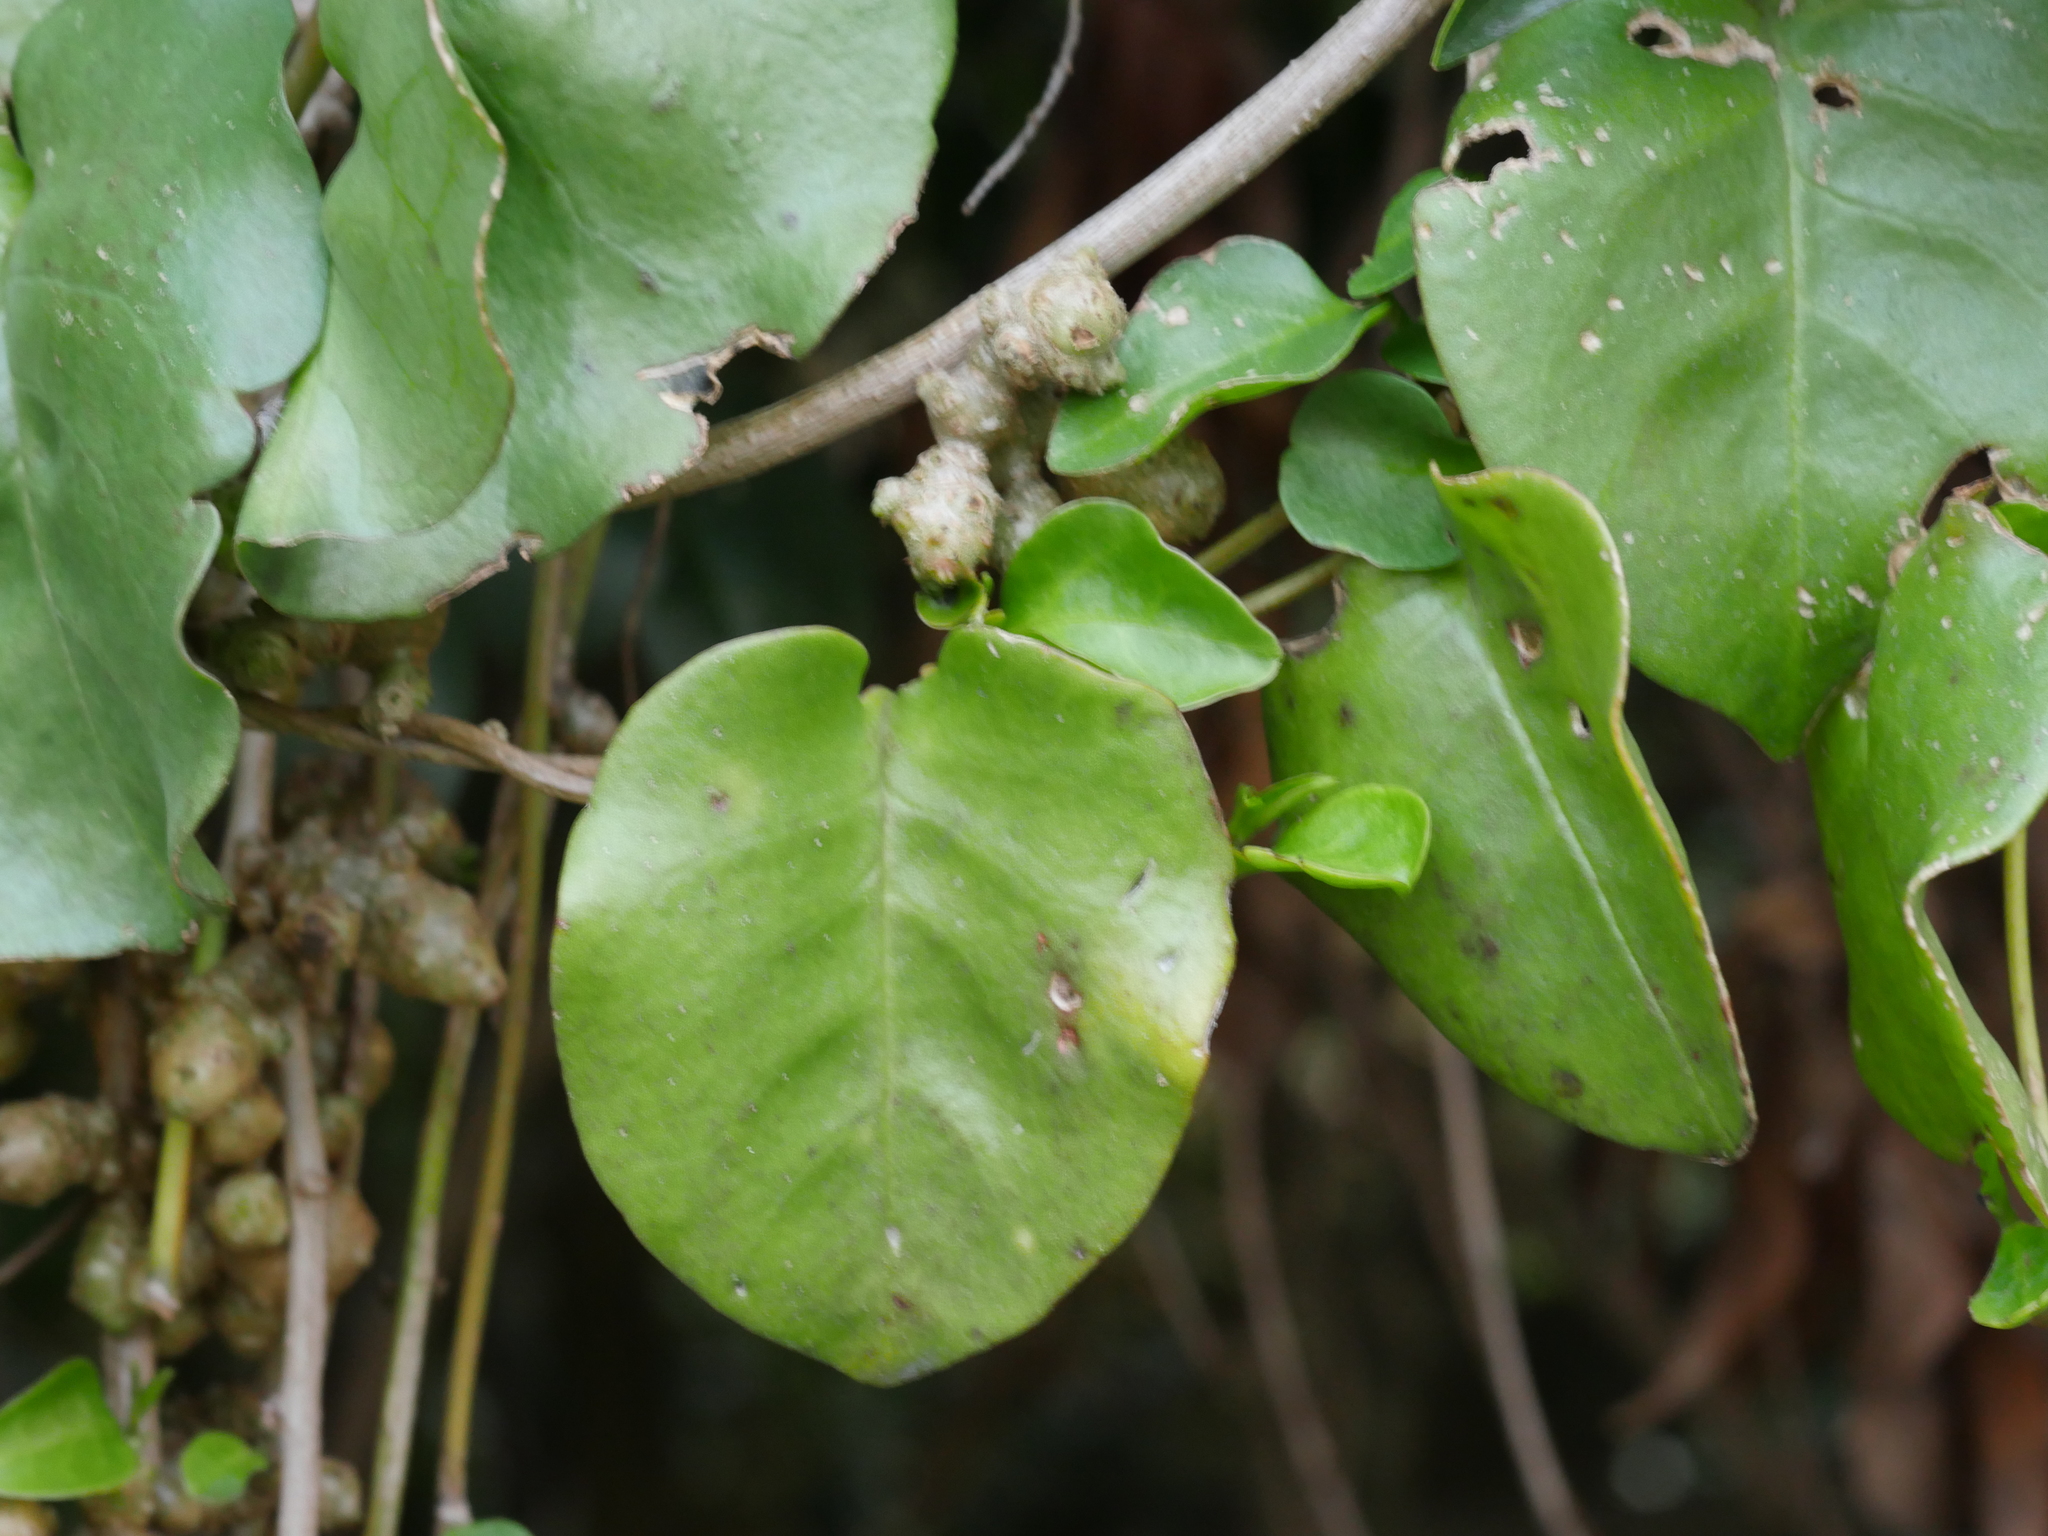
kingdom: Plantae
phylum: Tracheophyta
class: Magnoliopsida
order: Caryophyllales
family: Basellaceae
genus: Anredera
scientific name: Anredera cordifolia
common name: Heartleaf madeiravine
